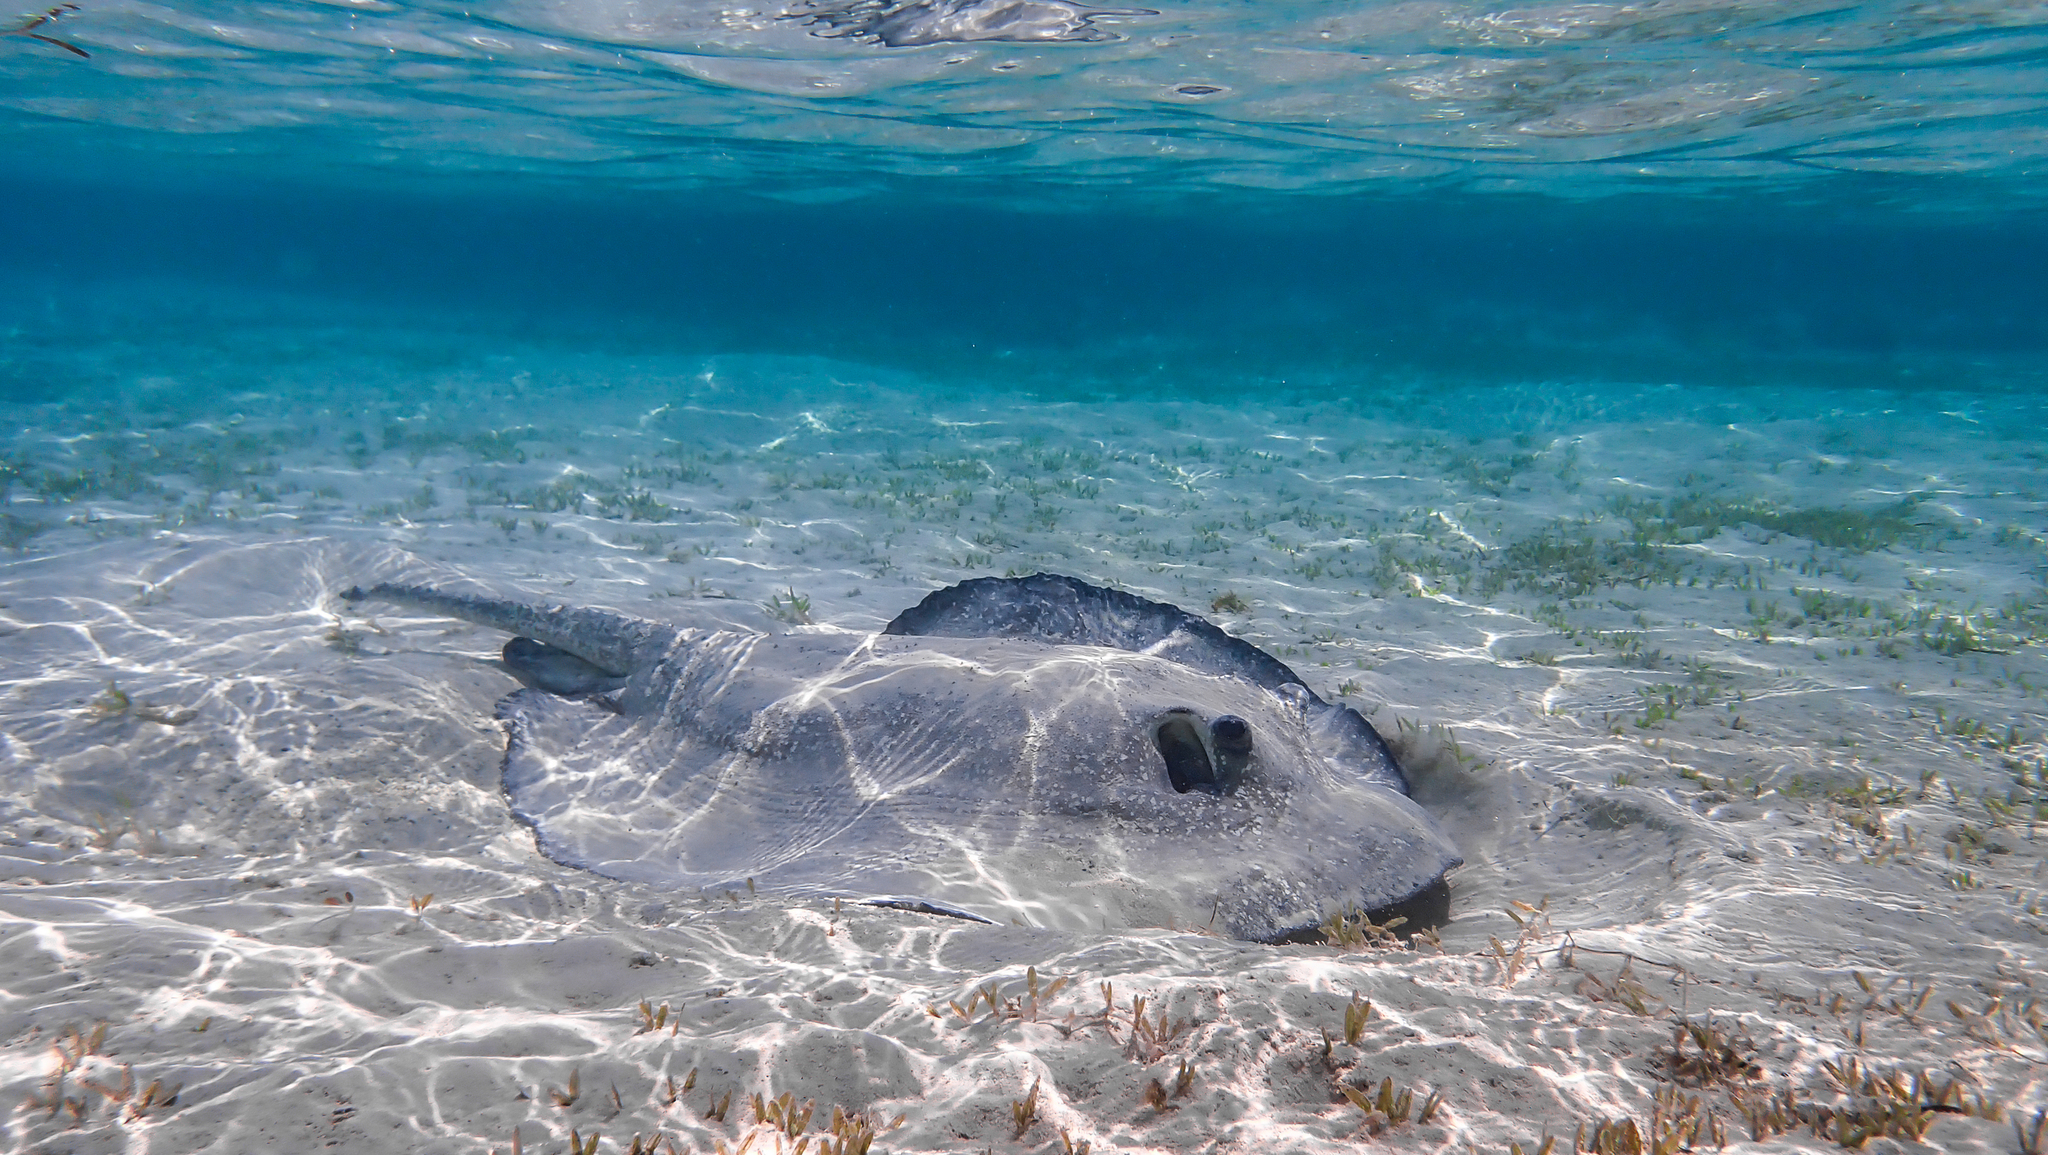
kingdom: Animalia
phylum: Chordata
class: Elasmobranchii
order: Myliobatiformes
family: Dasyatidae
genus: Urogymnus
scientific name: Urogymnus asperrimus
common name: Porcupine ray
